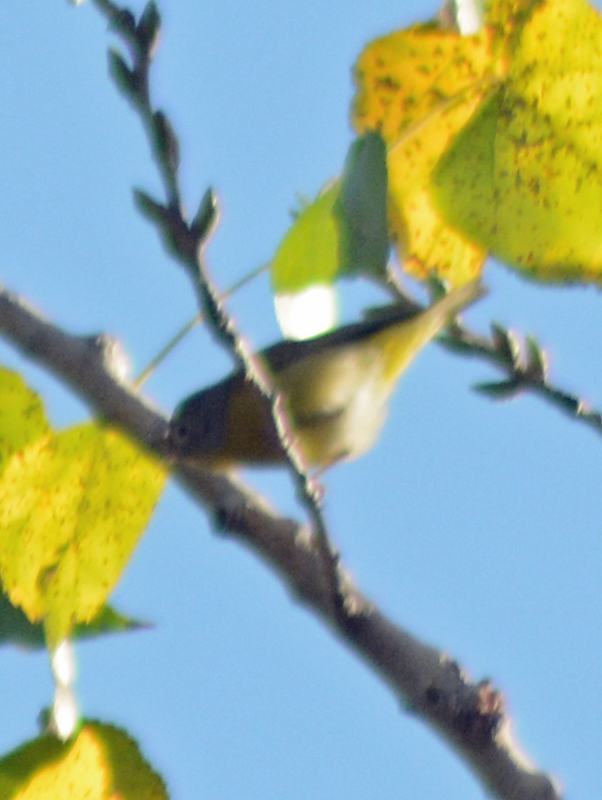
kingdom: Animalia
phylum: Chordata
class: Aves
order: Passeriformes
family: Parulidae
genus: Leiothlypis
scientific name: Leiothlypis ruficapilla
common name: Nashville warbler
